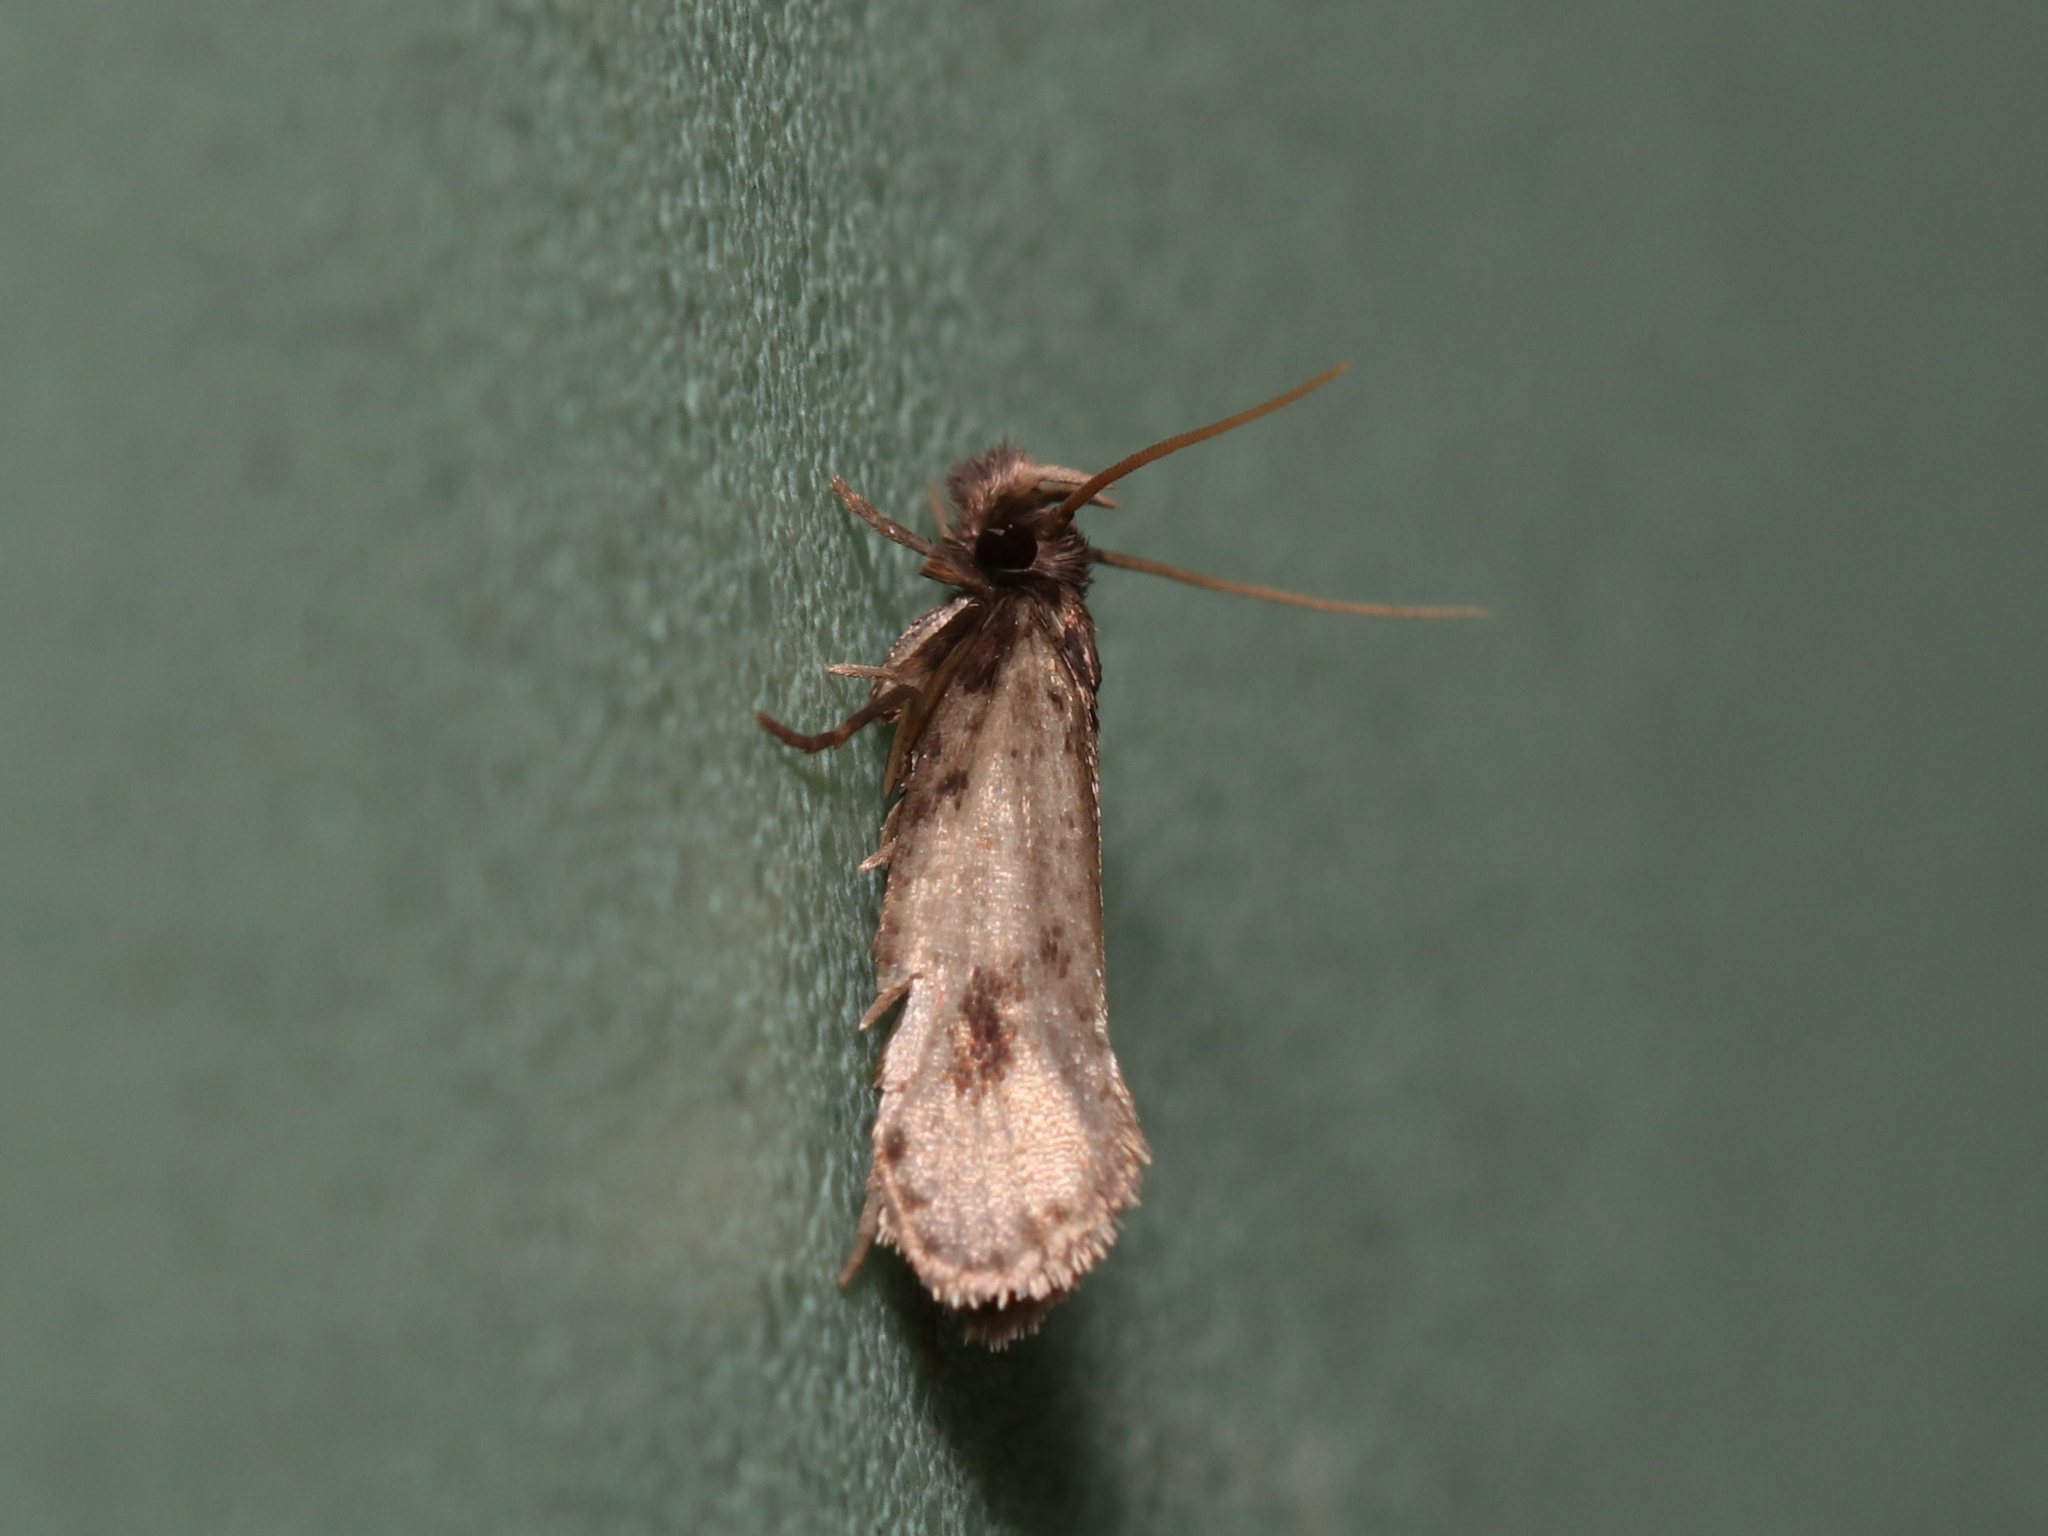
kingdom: Animalia
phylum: Arthropoda
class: Insecta
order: Lepidoptera
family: Tineidae
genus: Amydria
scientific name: Amydria effrentella
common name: Brown-blotched amydria moth
